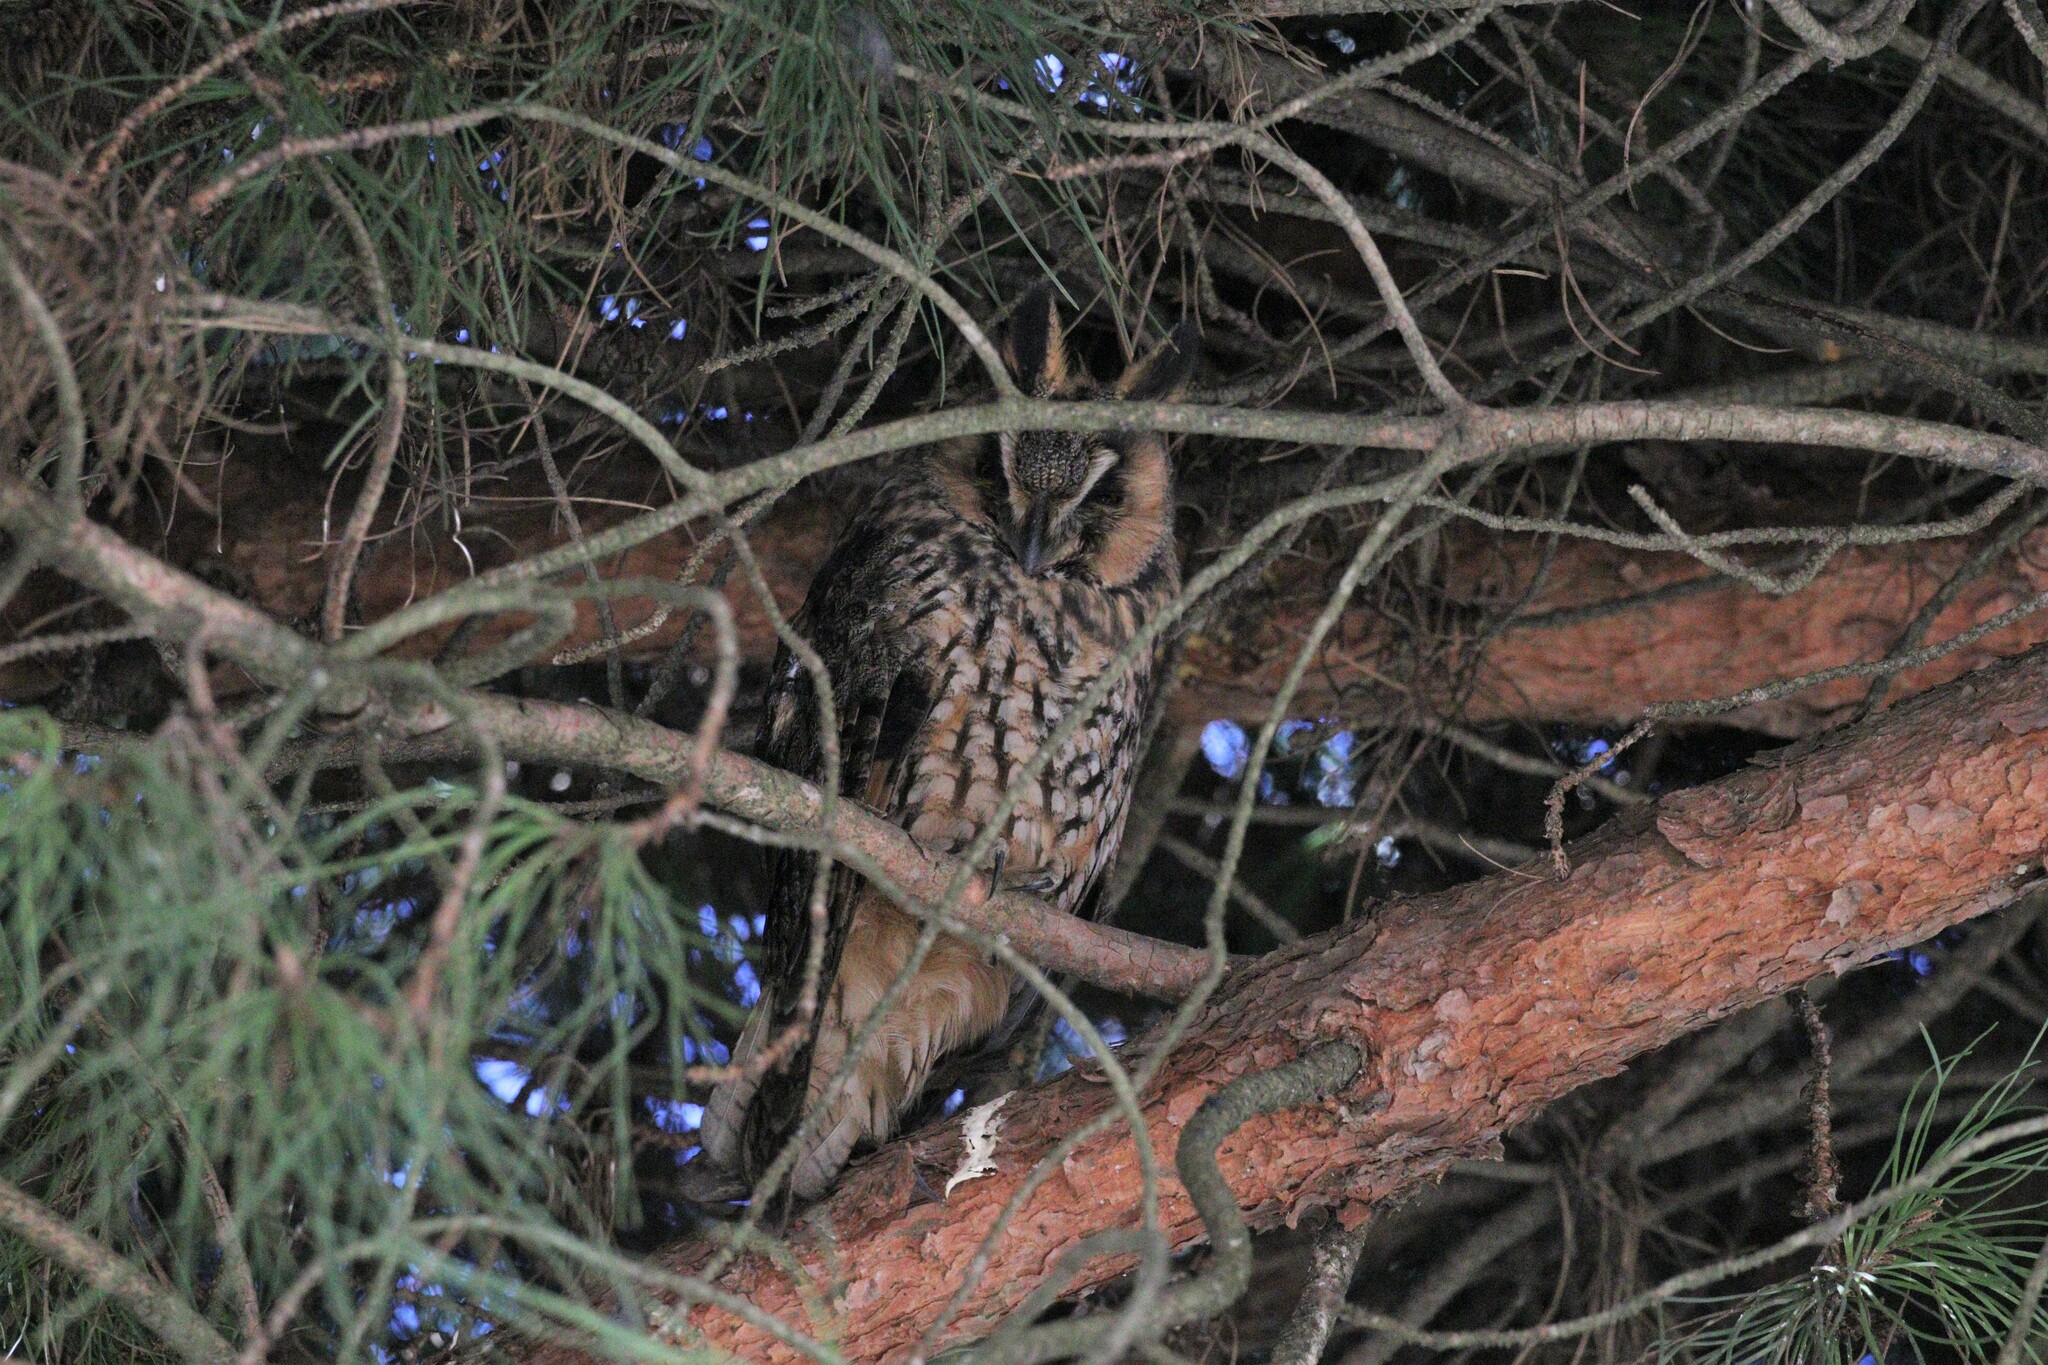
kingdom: Animalia
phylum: Chordata
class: Aves
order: Strigiformes
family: Strigidae
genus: Asio
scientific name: Asio otus
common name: Long-eared owl
